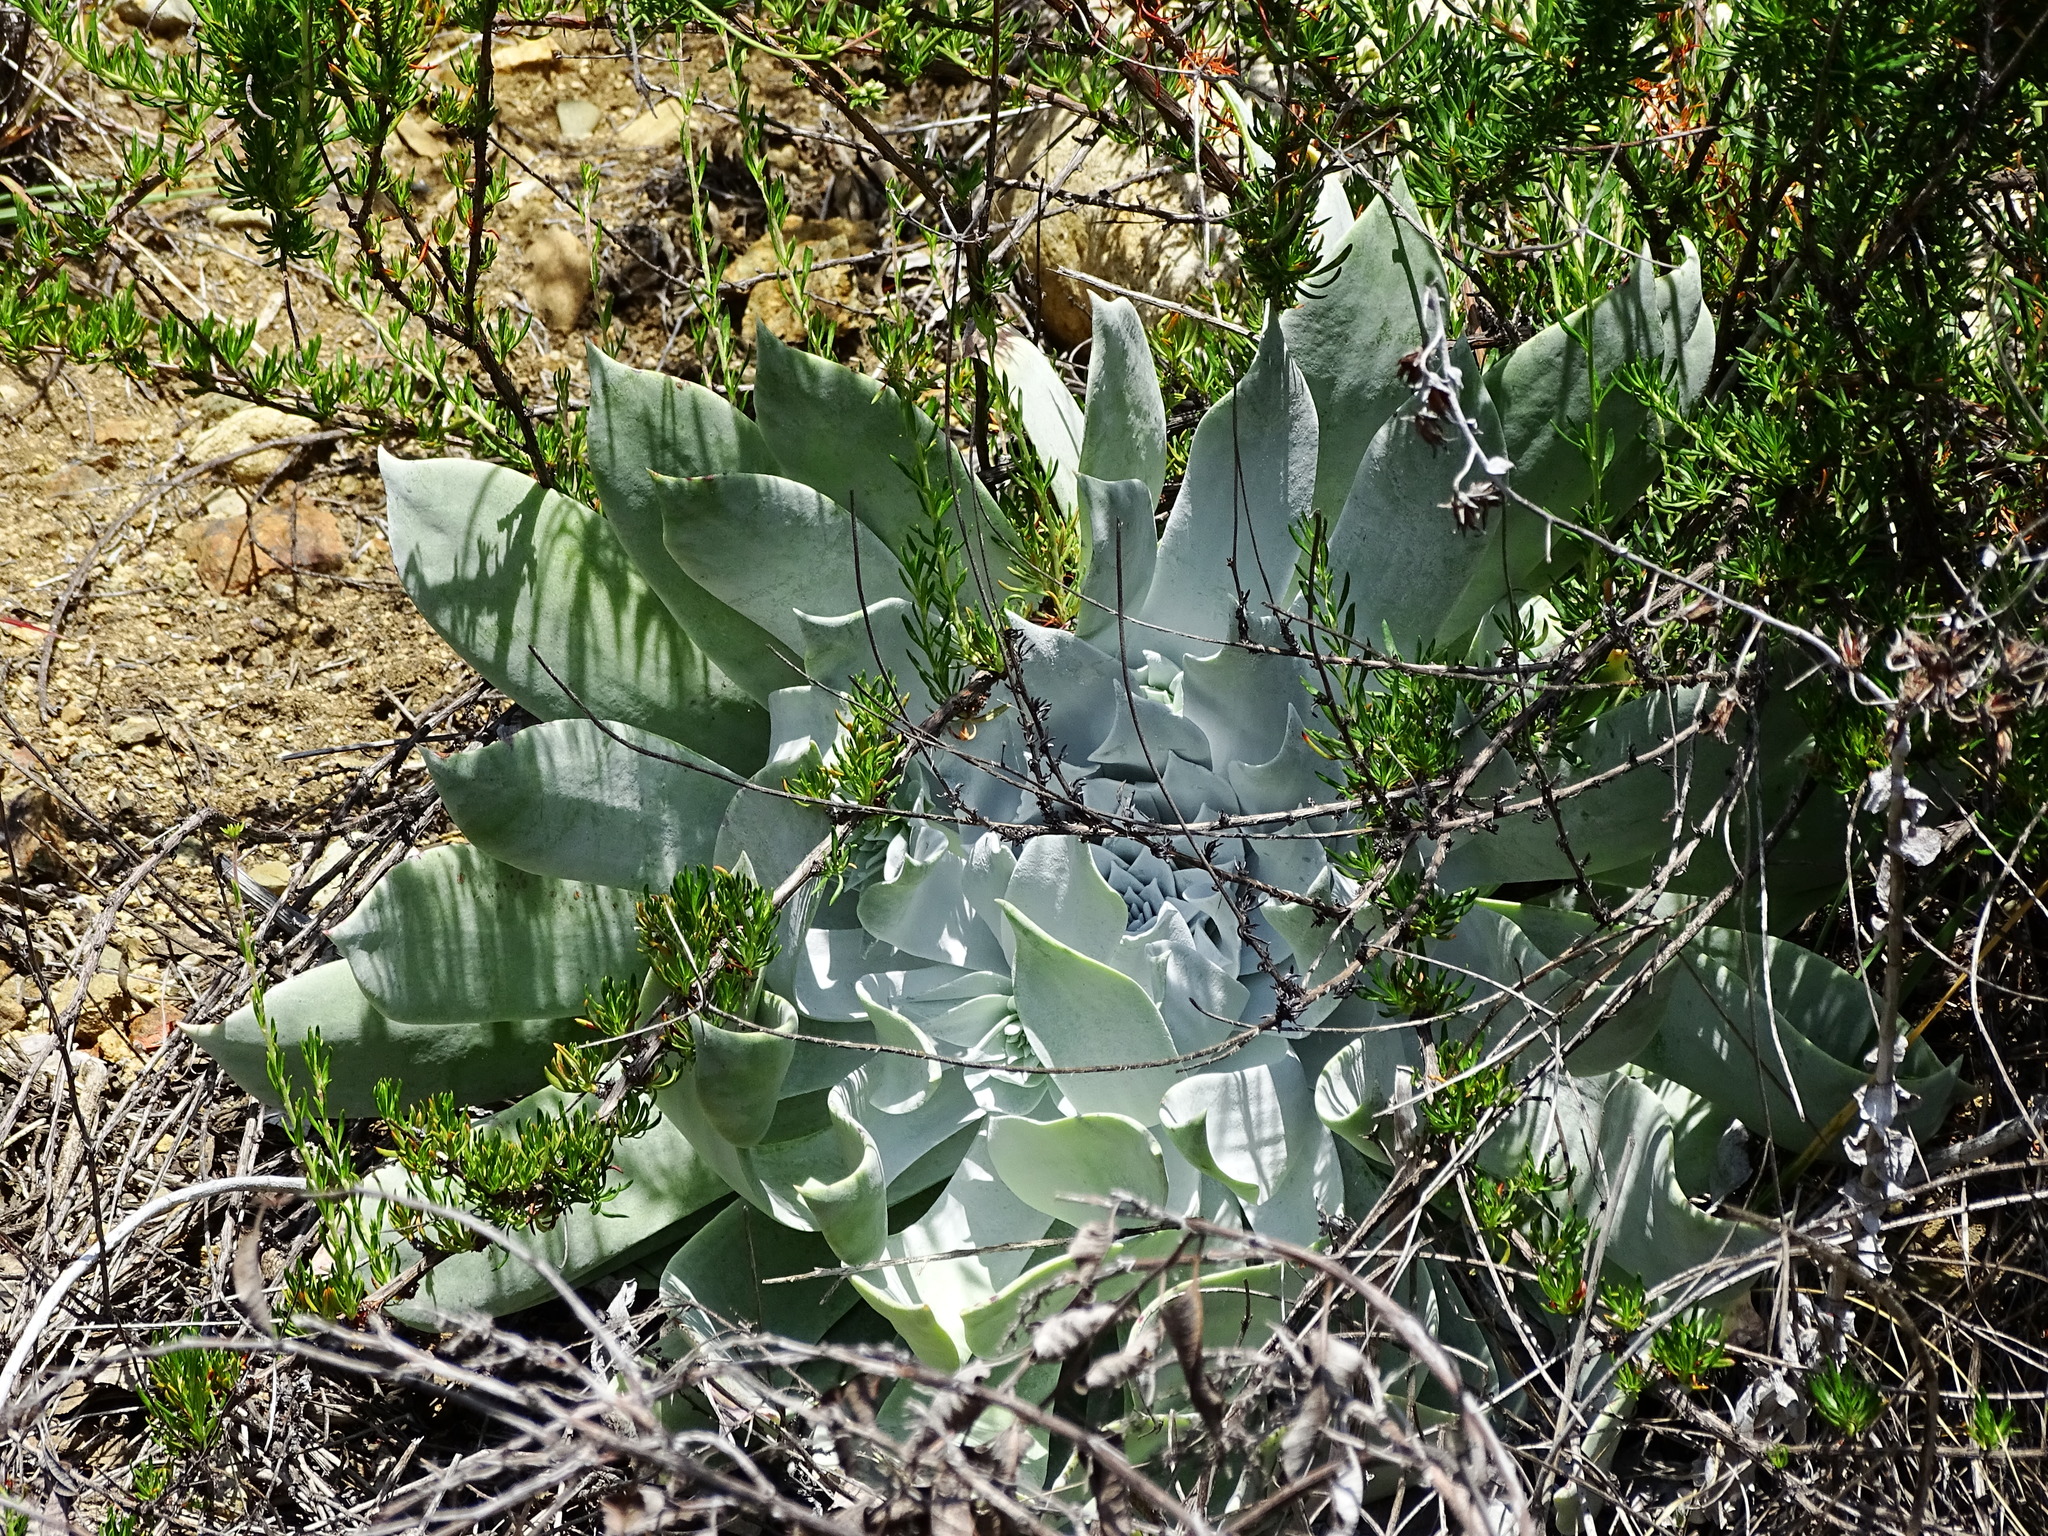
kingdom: Plantae
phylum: Tracheophyta
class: Magnoliopsida
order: Saxifragales
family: Crassulaceae
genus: Dudleya
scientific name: Dudleya pulverulenta
